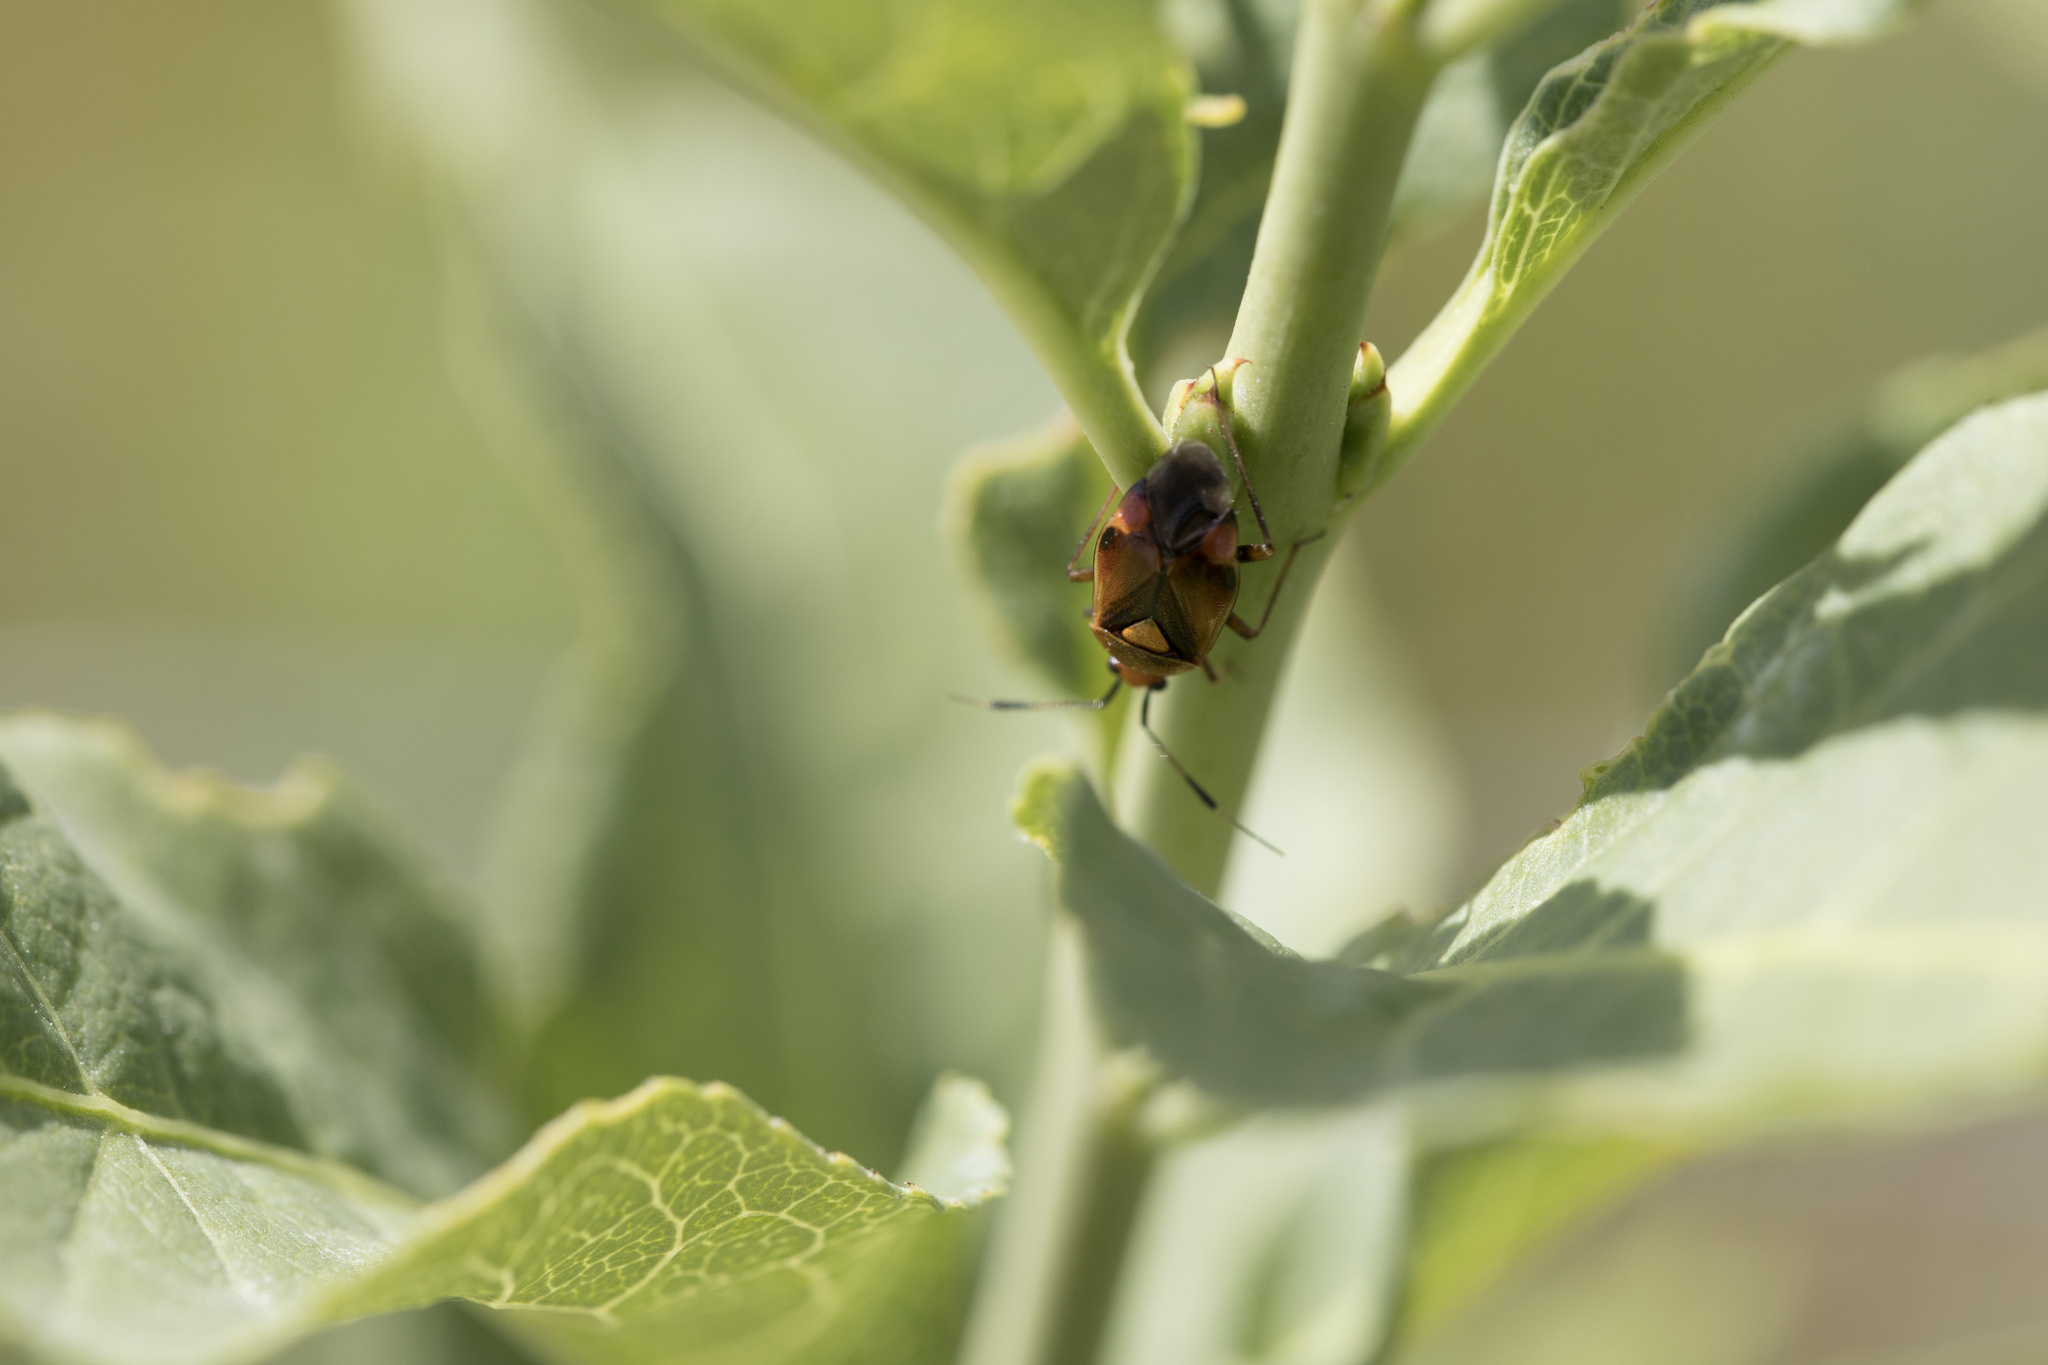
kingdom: Animalia
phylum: Arthropoda
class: Insecta
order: Hemiptera
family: Miridae
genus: Deraeocoris
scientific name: Deraeocoris ruber
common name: Plant bug
